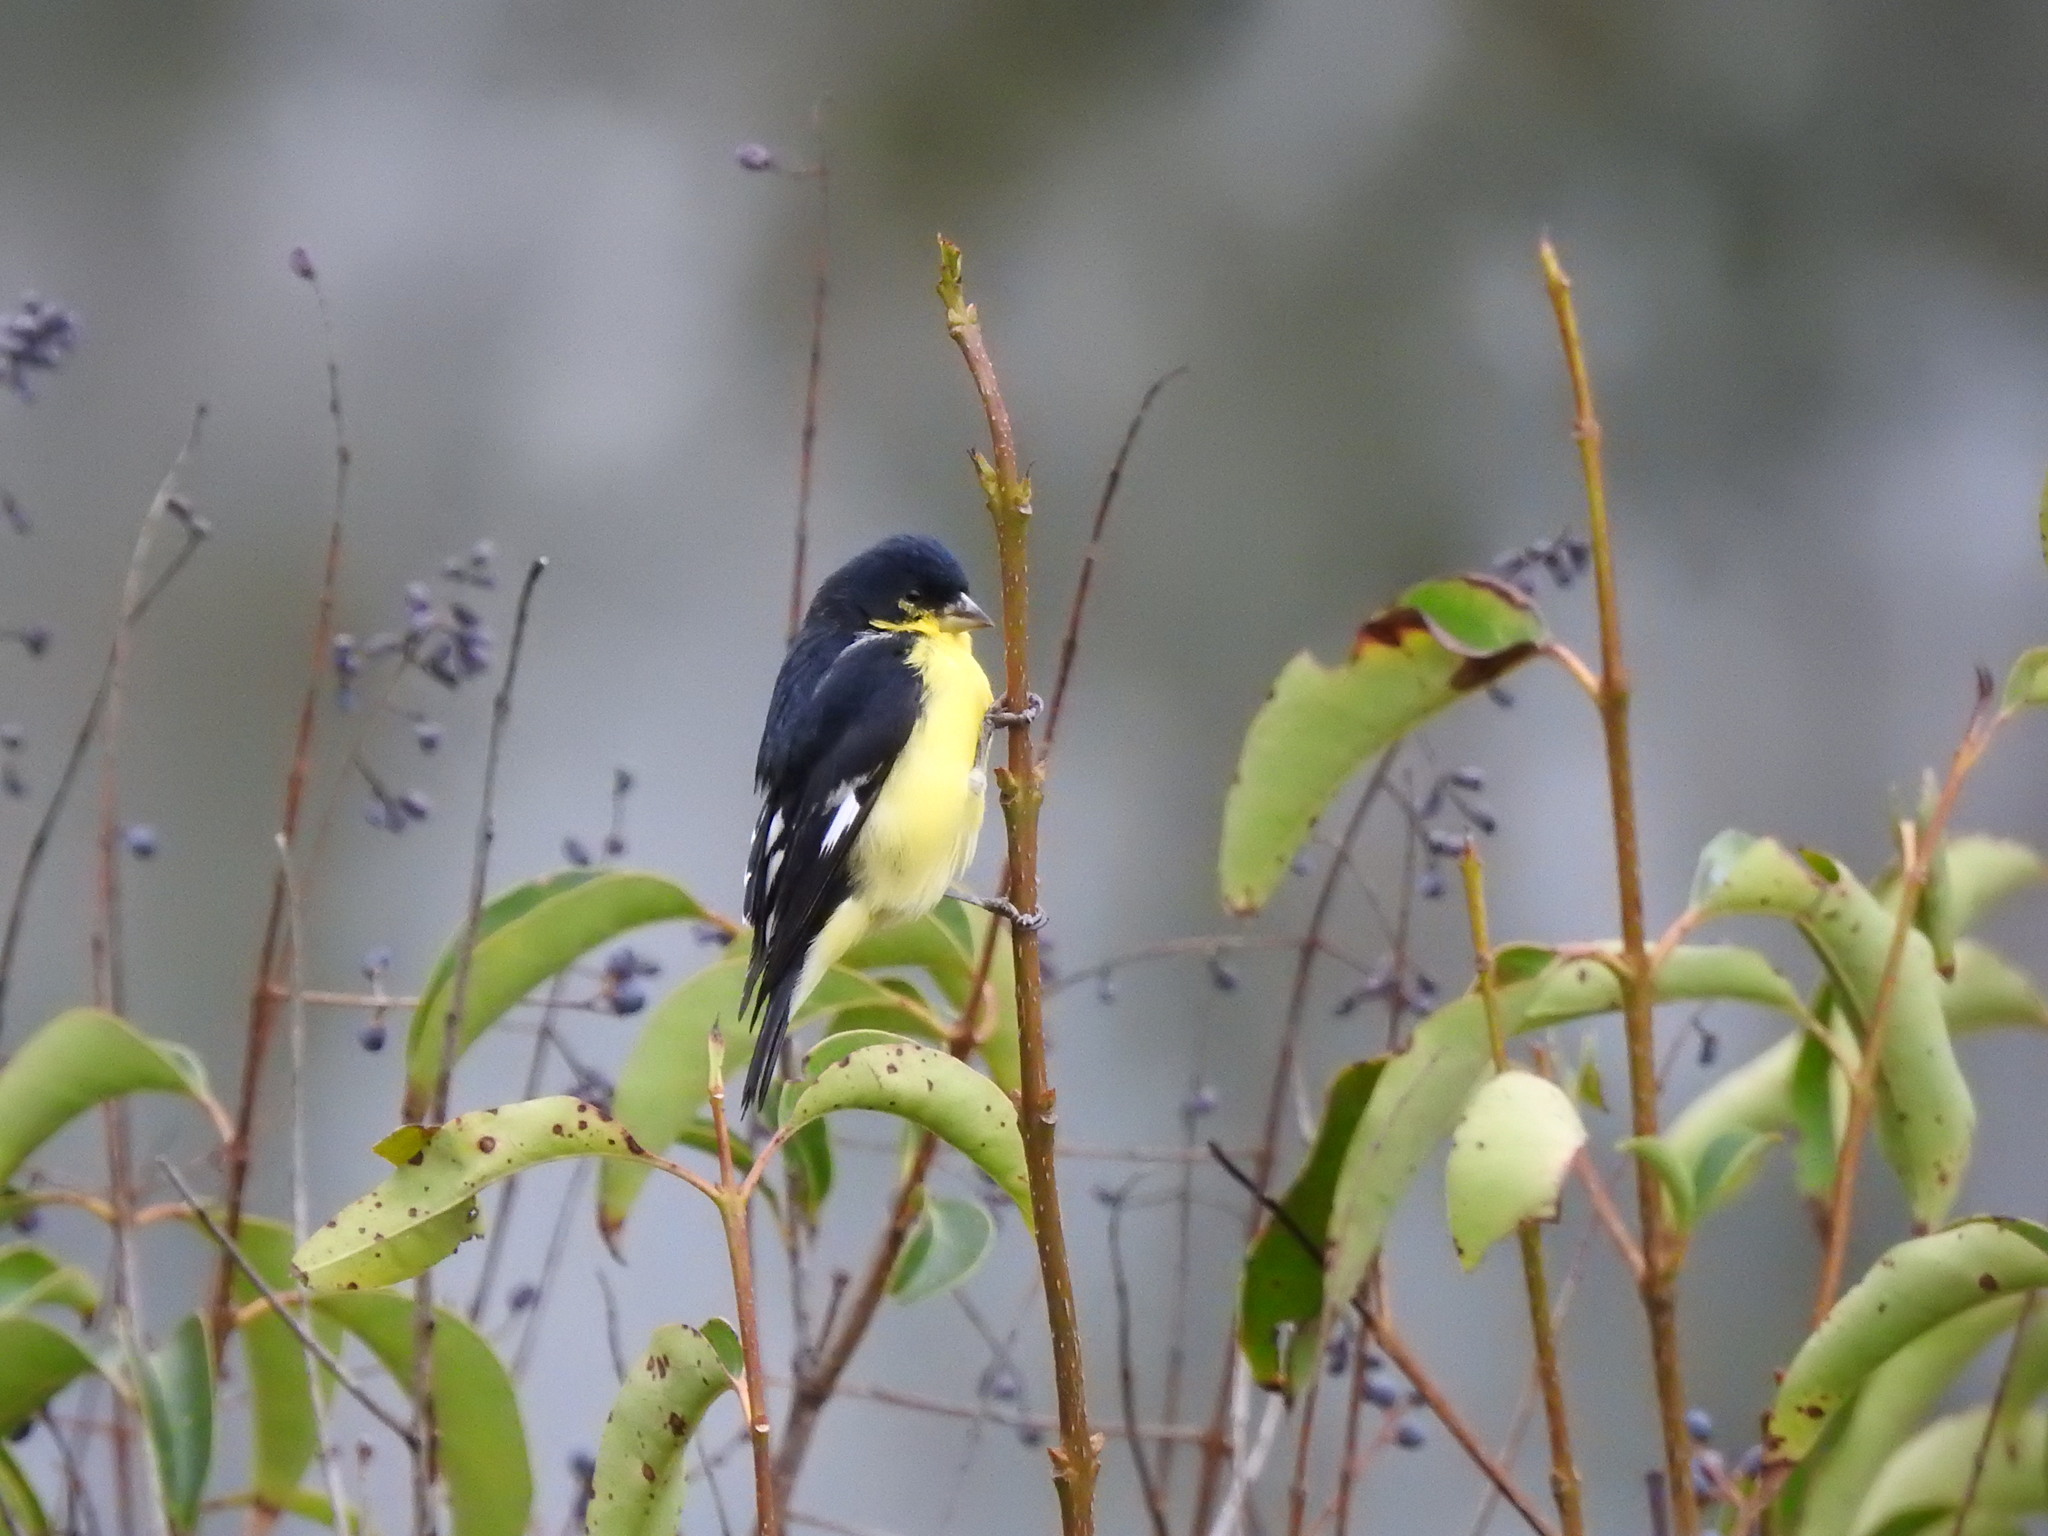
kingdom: Animalia
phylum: Chordata
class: Aves
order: Passeriformes
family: Fringillidae
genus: Spinus
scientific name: Spinus psaltria
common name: Lesser goldfinch
